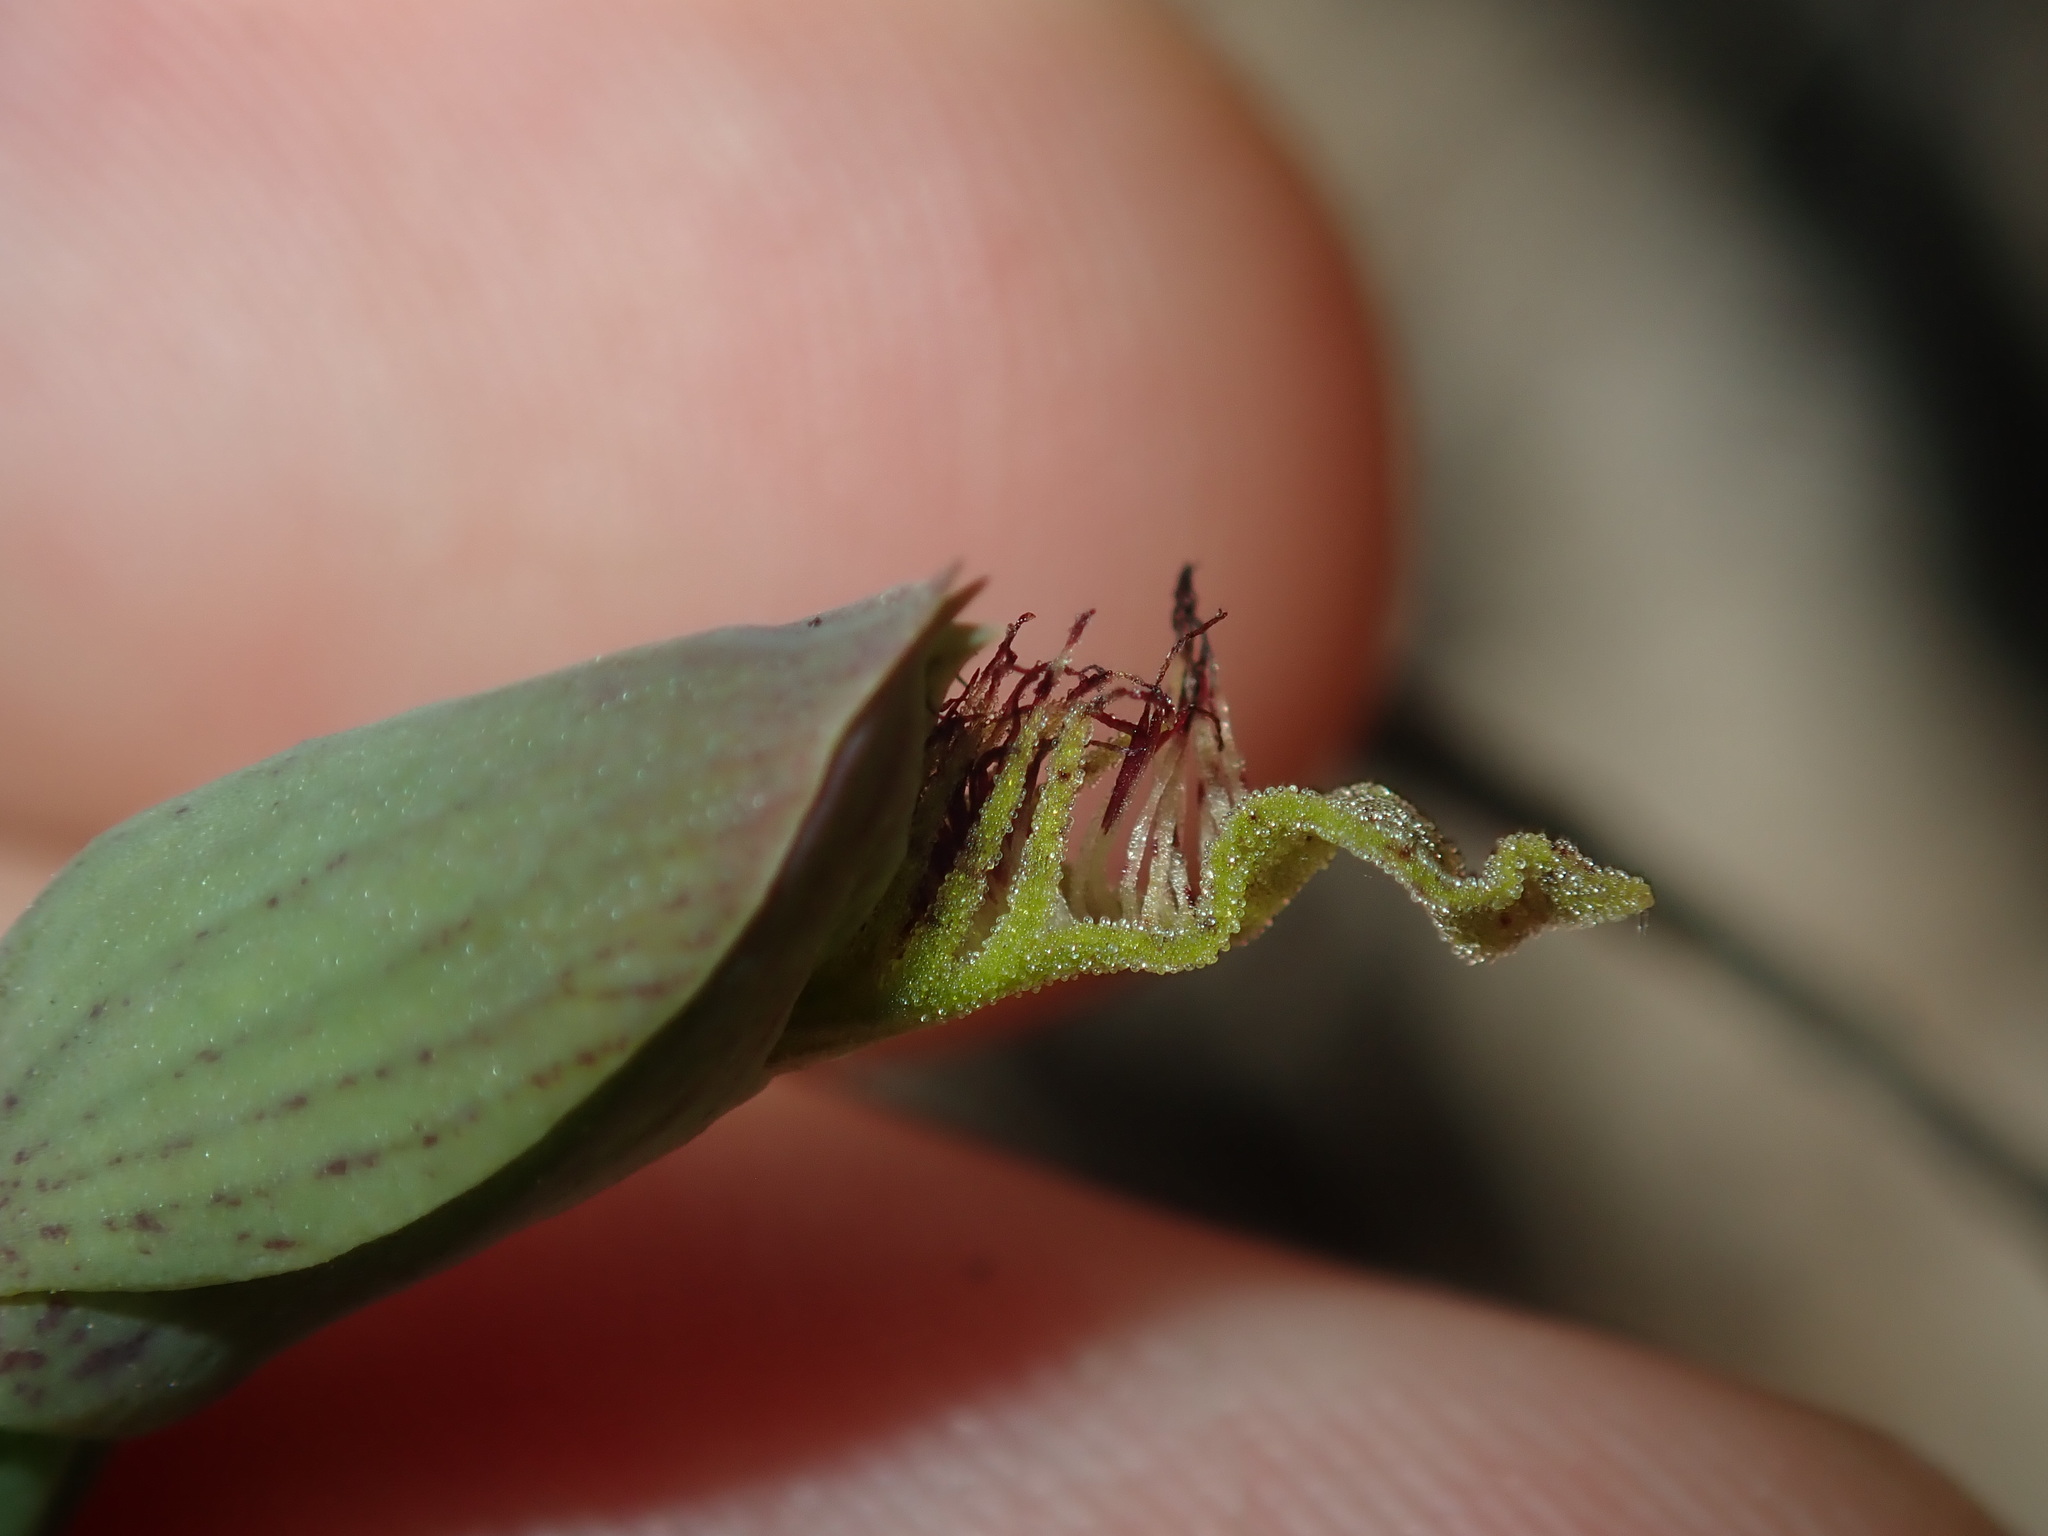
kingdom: Plantae
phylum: Tracheophyta
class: Liliopsida
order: Asparagales
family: Orchidaceae
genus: Calochilus
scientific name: Calochilus paludosus
